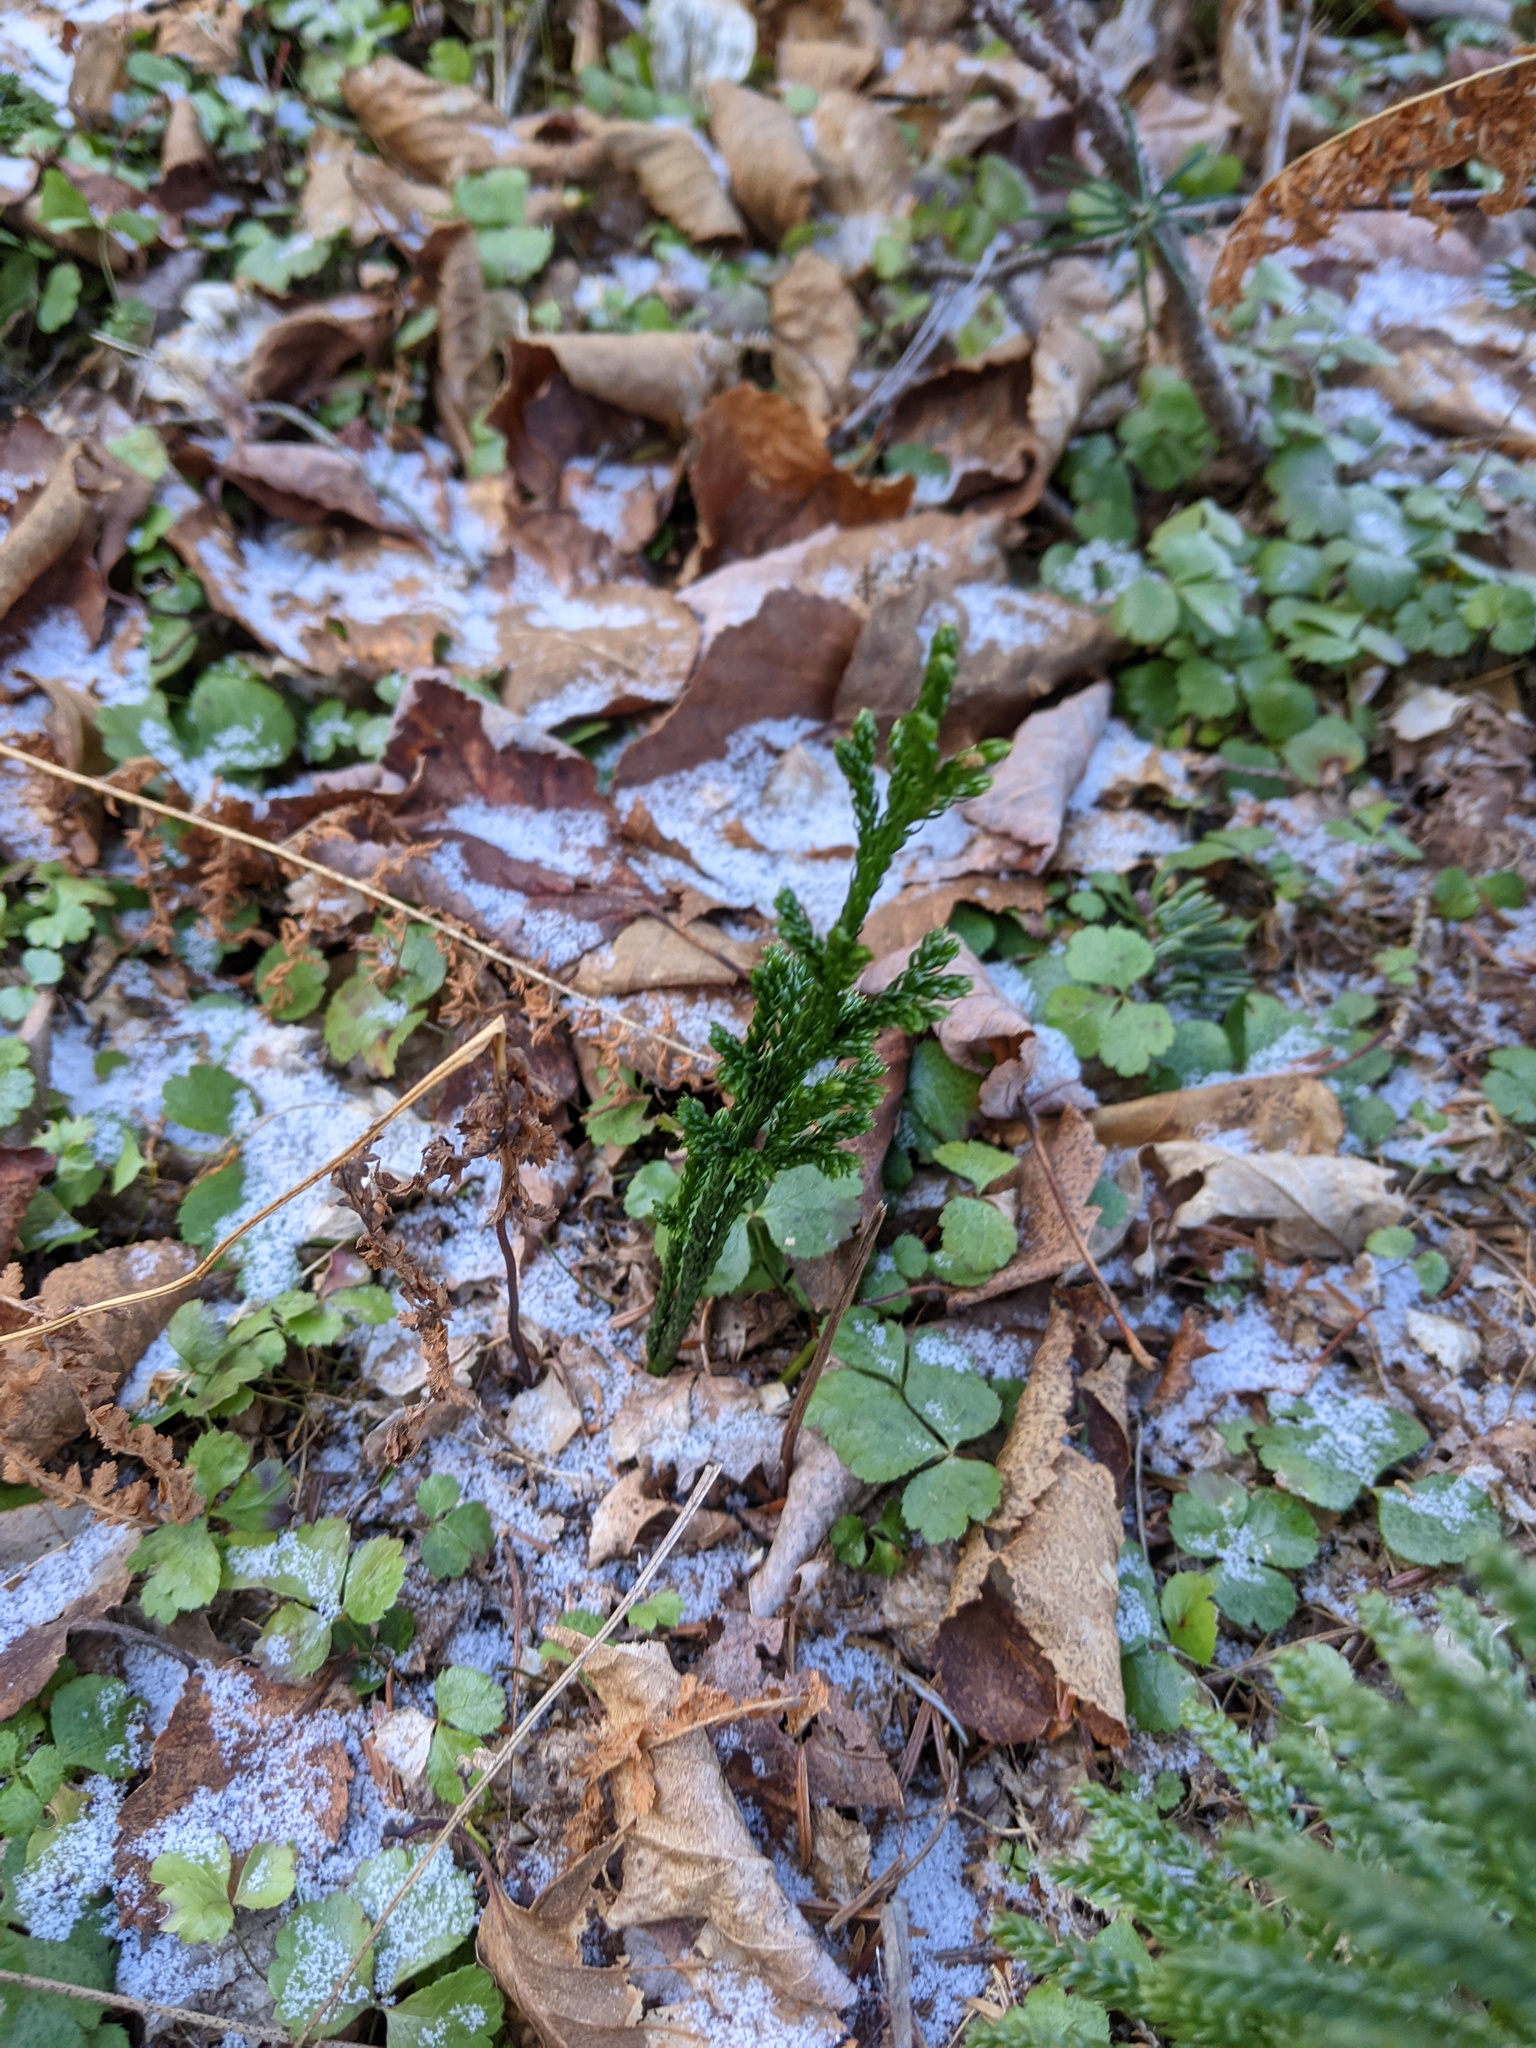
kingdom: Plantae
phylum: Tracheophyta
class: Lycopodiopsida
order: Lycopodiales
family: Lycopodiaceae
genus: Dendrolycopodium
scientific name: Dendrolycopodium hickeyi
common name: Hickey's clubmoss
